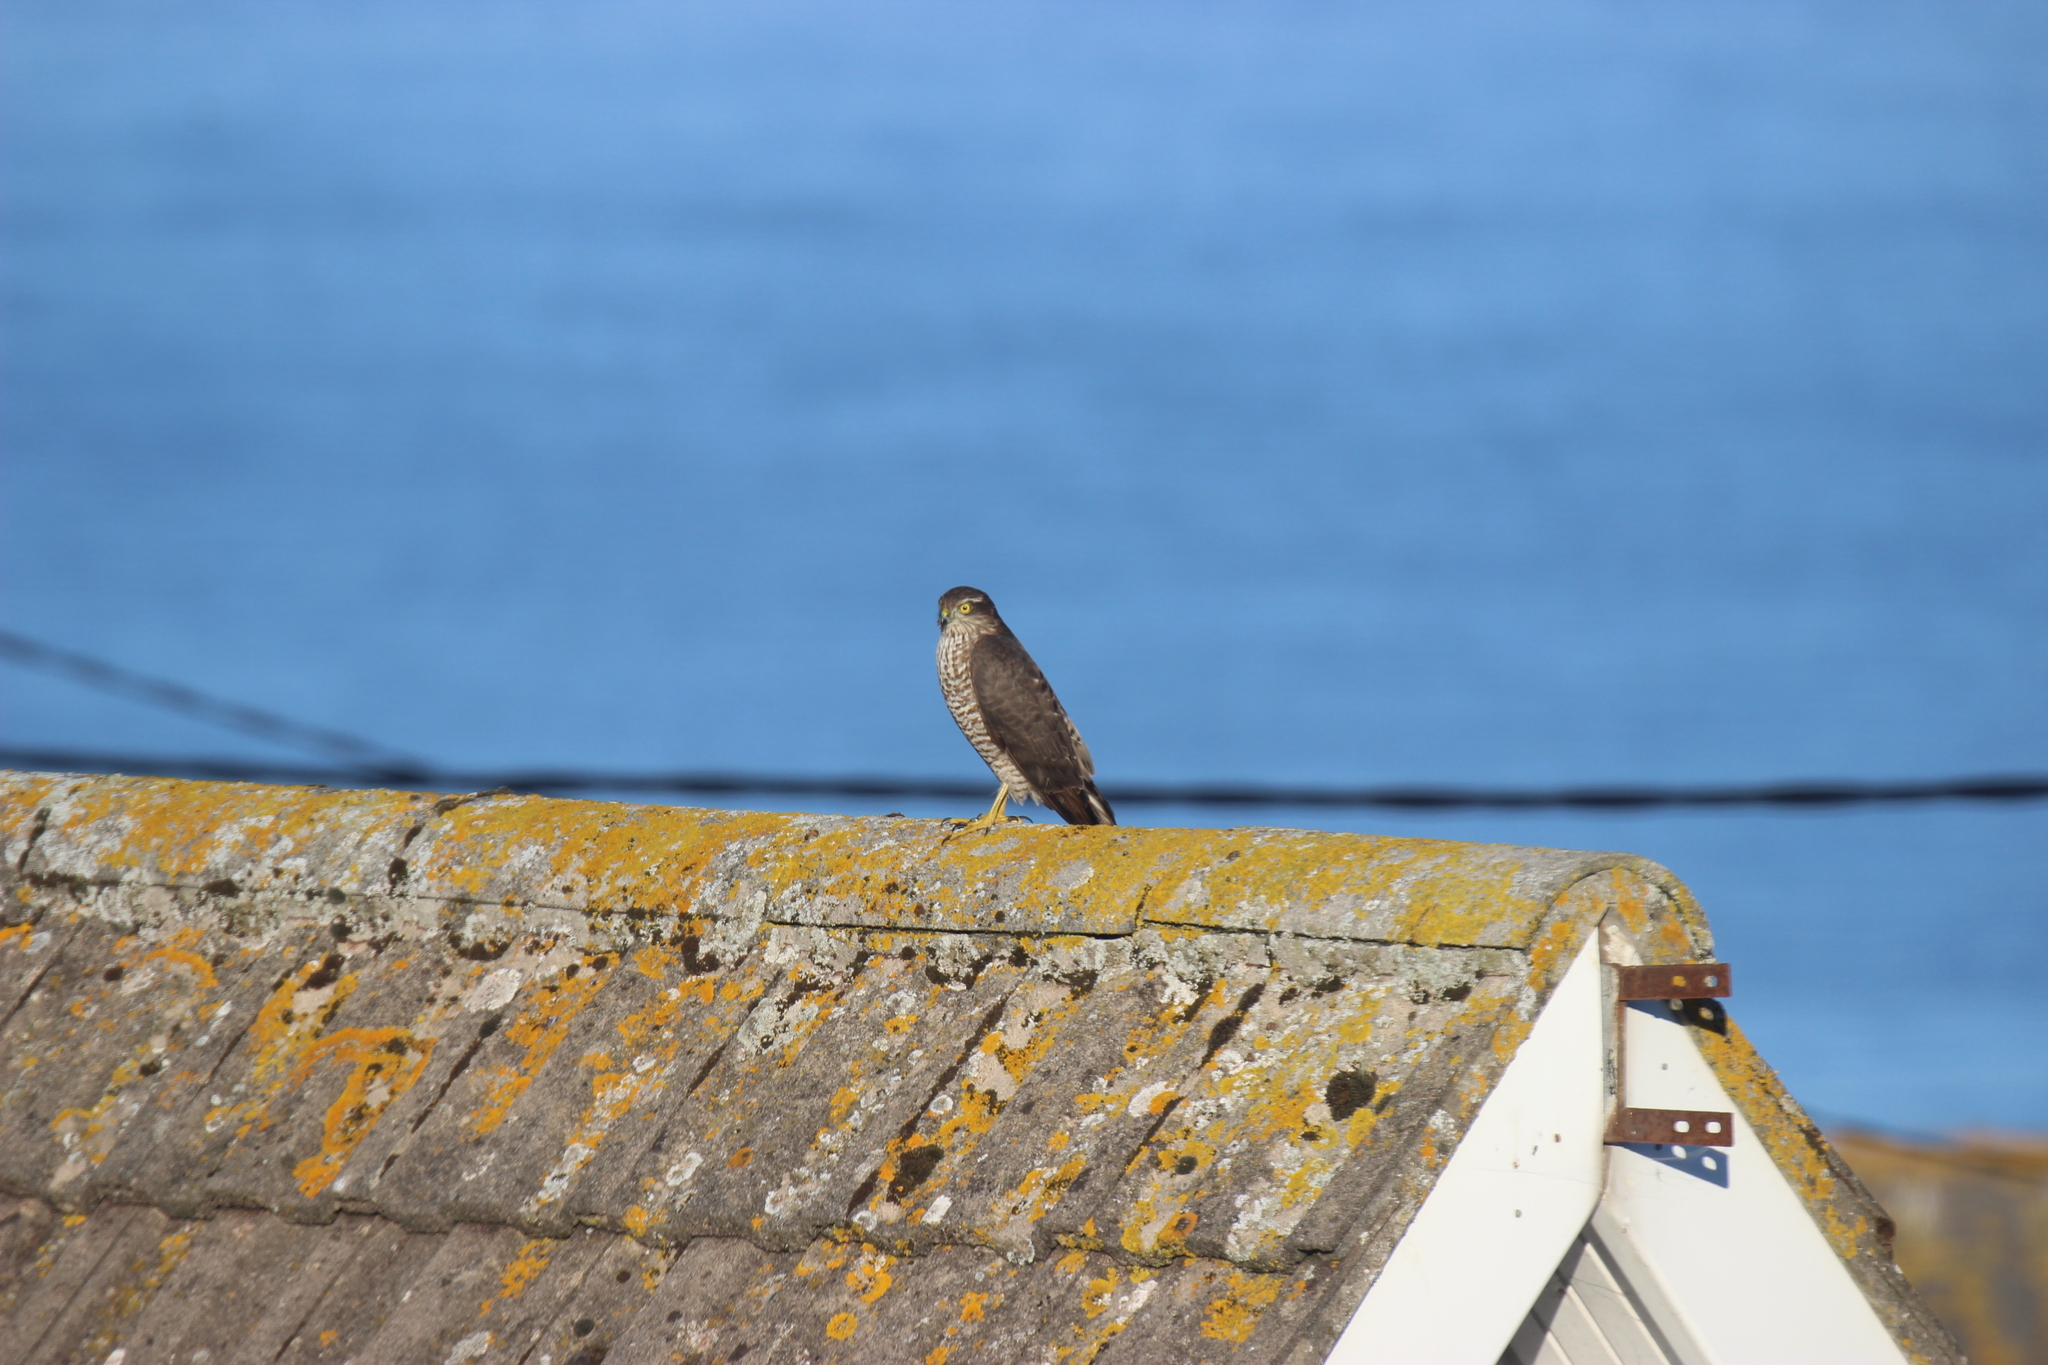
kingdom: Animalia
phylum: Chordata
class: Aves
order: Accipitriformes
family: Accipitridae
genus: Accipiter
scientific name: Accipiter nisus
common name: Eurasian sparrowhawk
